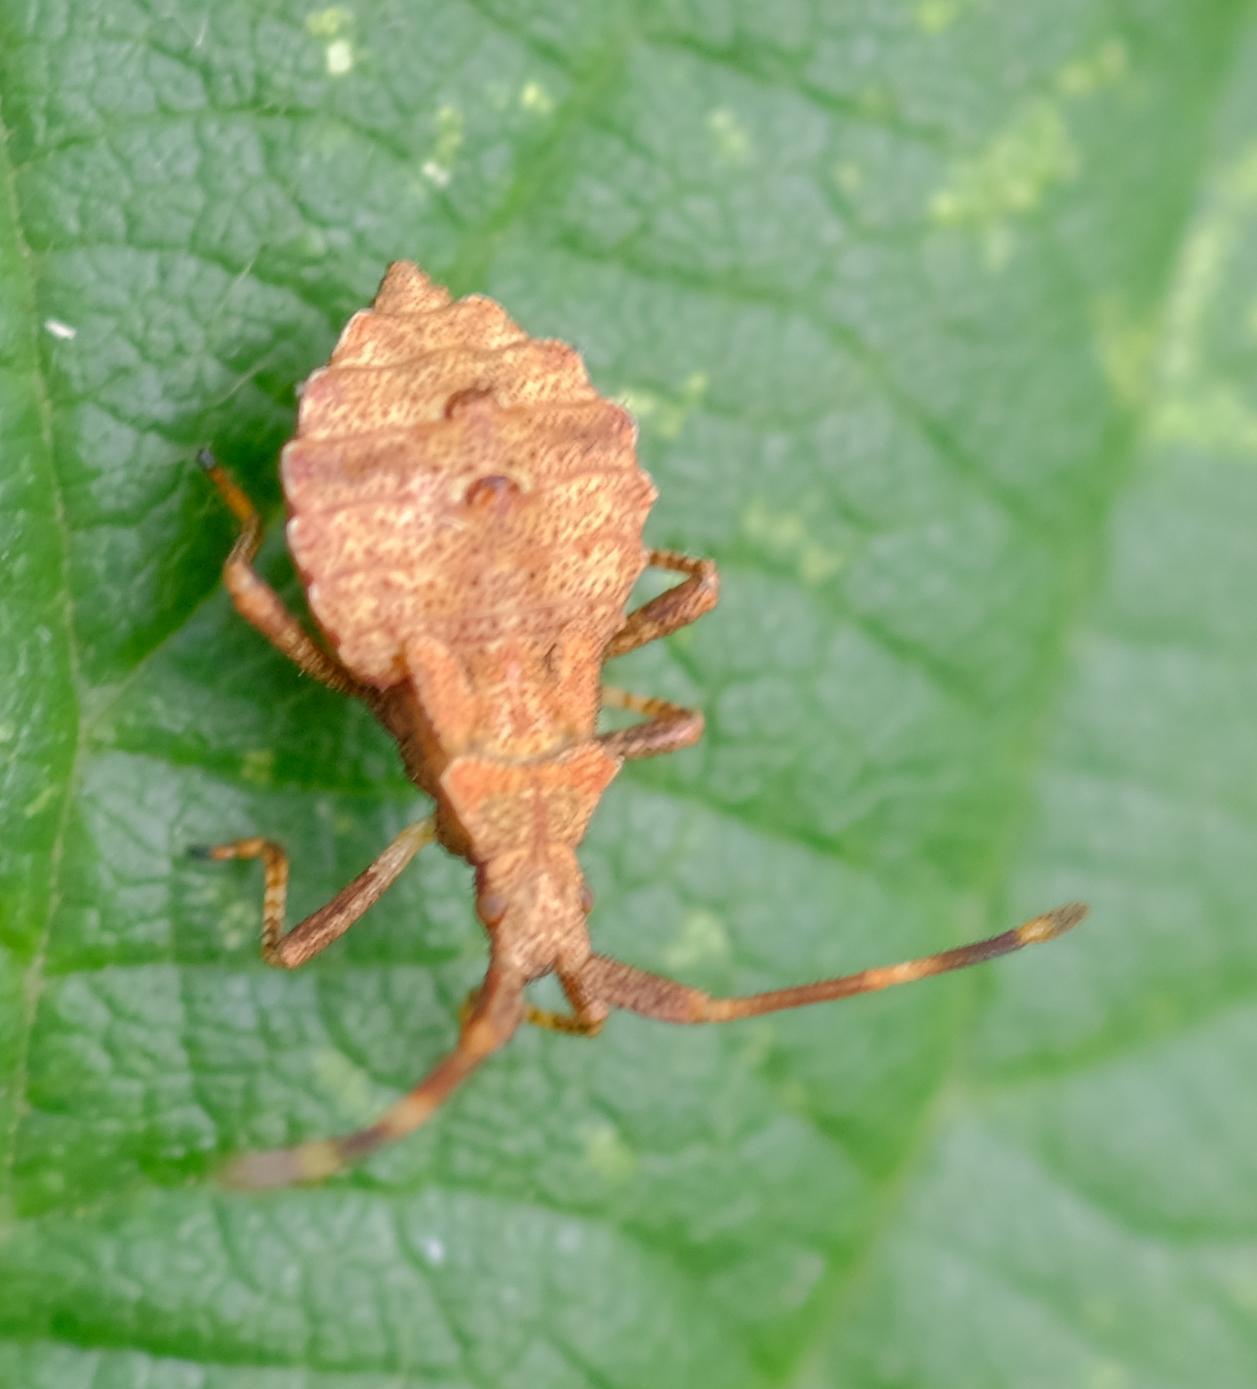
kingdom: Animalia
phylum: Arthropoda
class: Insecta
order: Hemiptera
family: Coreidae
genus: Coreus
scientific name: Coreus marginatus
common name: Dock bug
